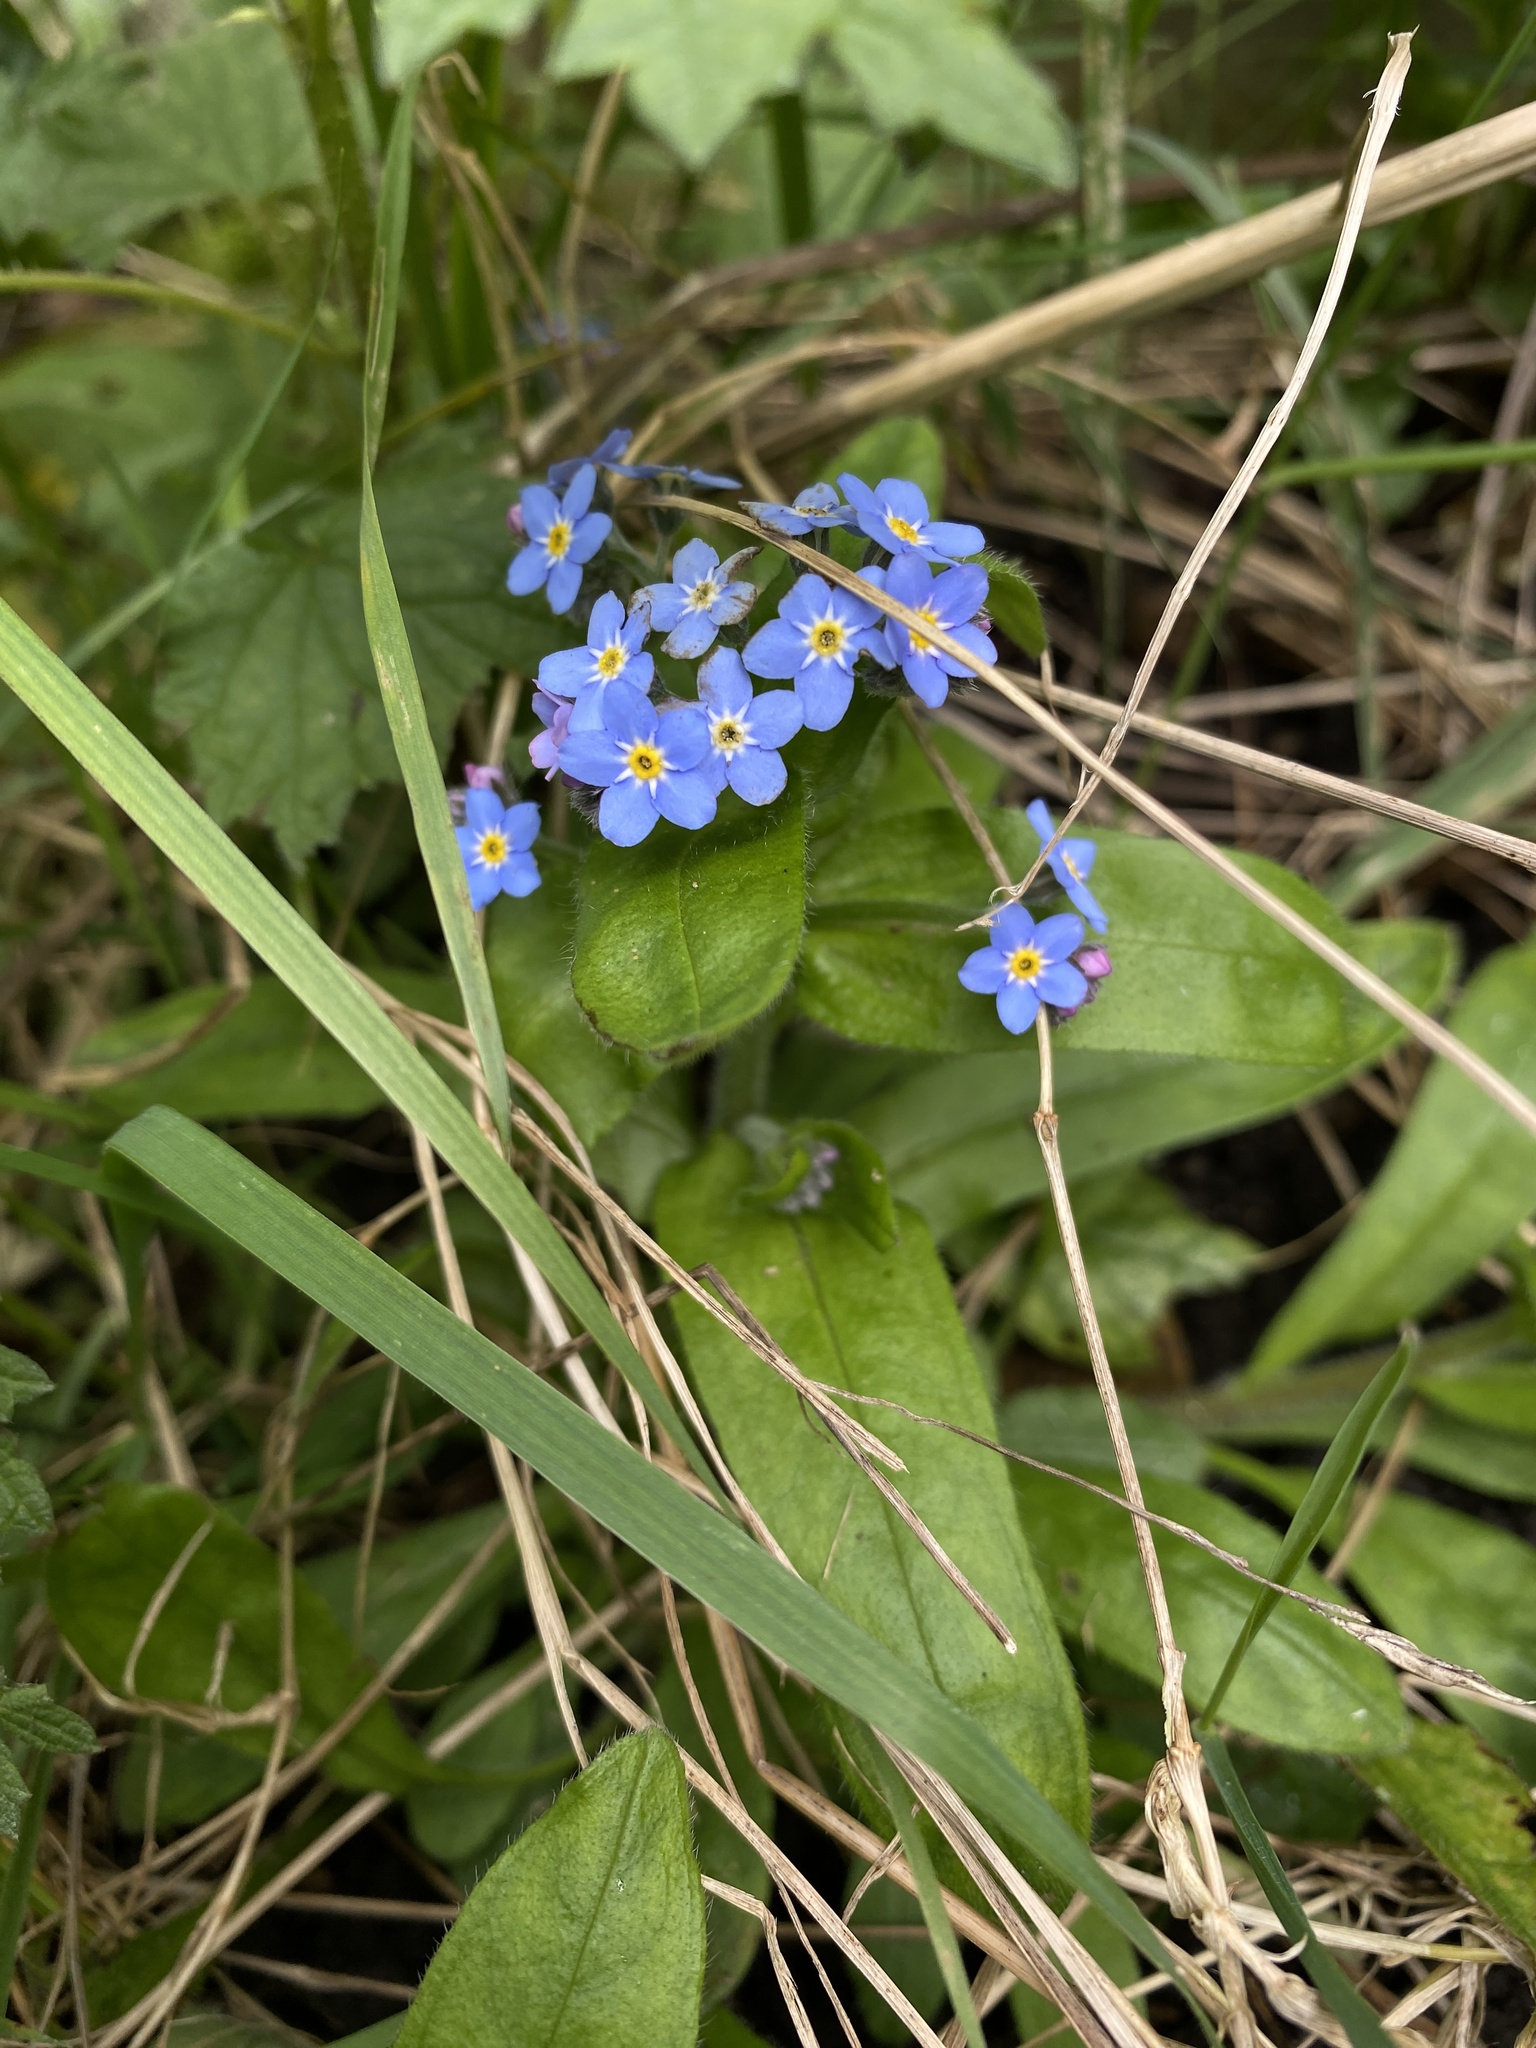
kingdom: Plantae
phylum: Tracheophyta
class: Magnoliopsida
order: Boraginales
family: Boraginaceae
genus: Myosotis
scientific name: Myosotis sylvatica
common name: Wood forget-me-not
